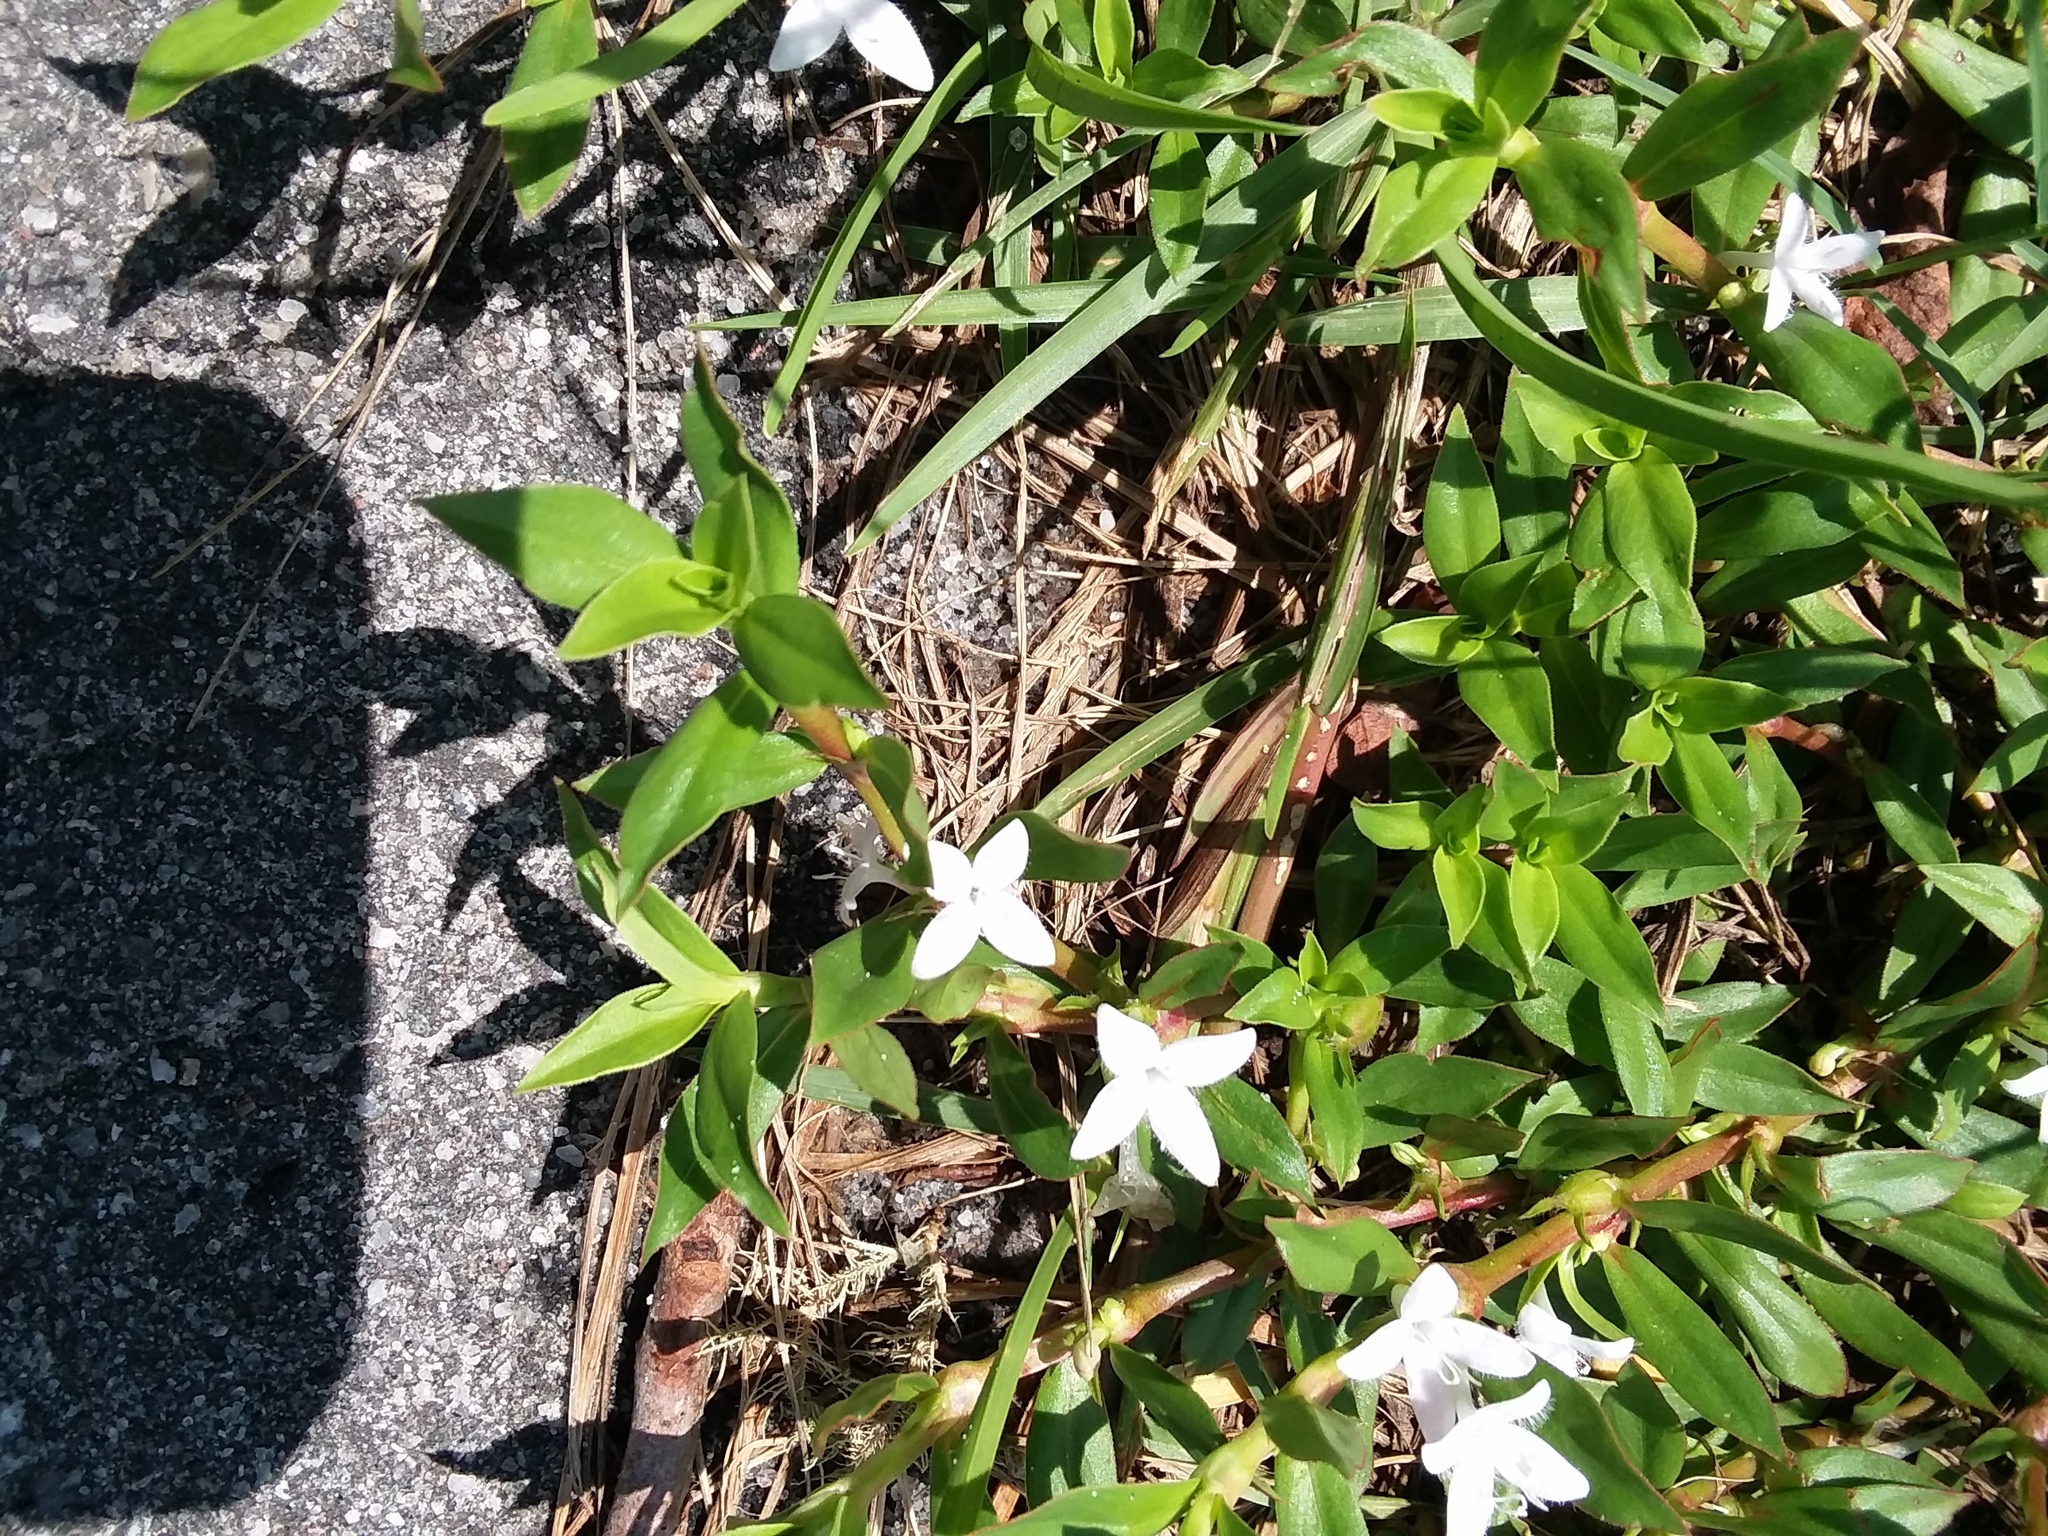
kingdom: Plantae
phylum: Tracheophyta
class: Magnoliopsida
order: Gentianales
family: Rubiaceae
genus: Diodia
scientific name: Diodia virginiana
